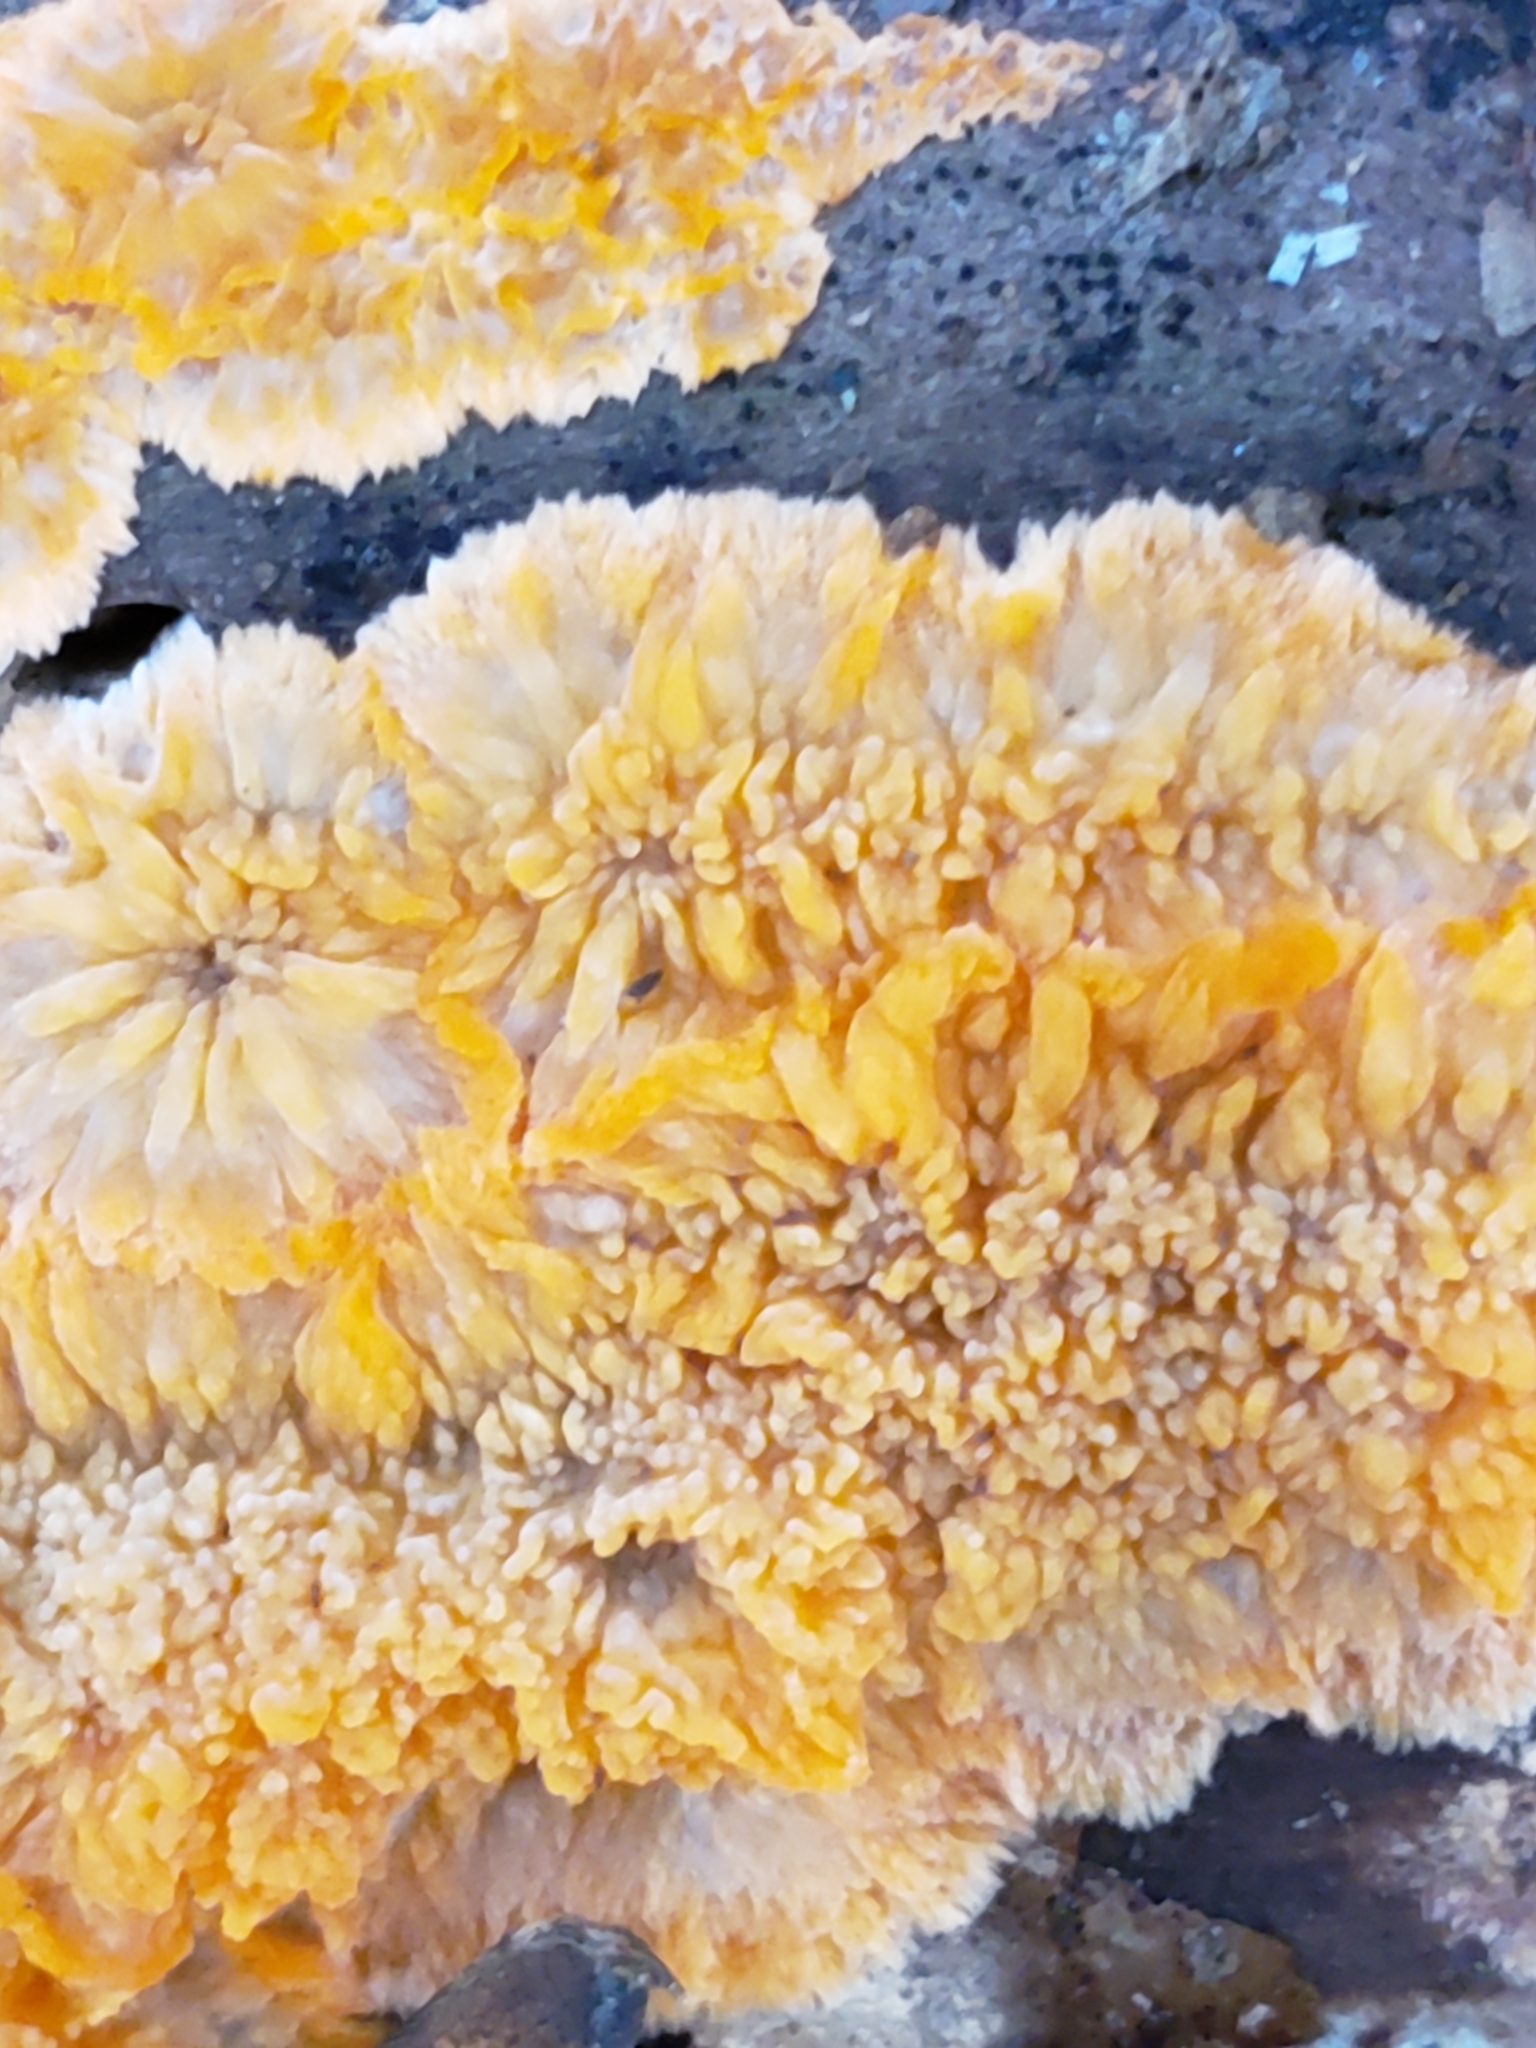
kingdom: Fungi
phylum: Basidiomycota
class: Agaricomycetes
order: Polyporales
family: Meruliaceae
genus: Phlebia
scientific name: Phlebia radiata
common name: Wrinkled crust
